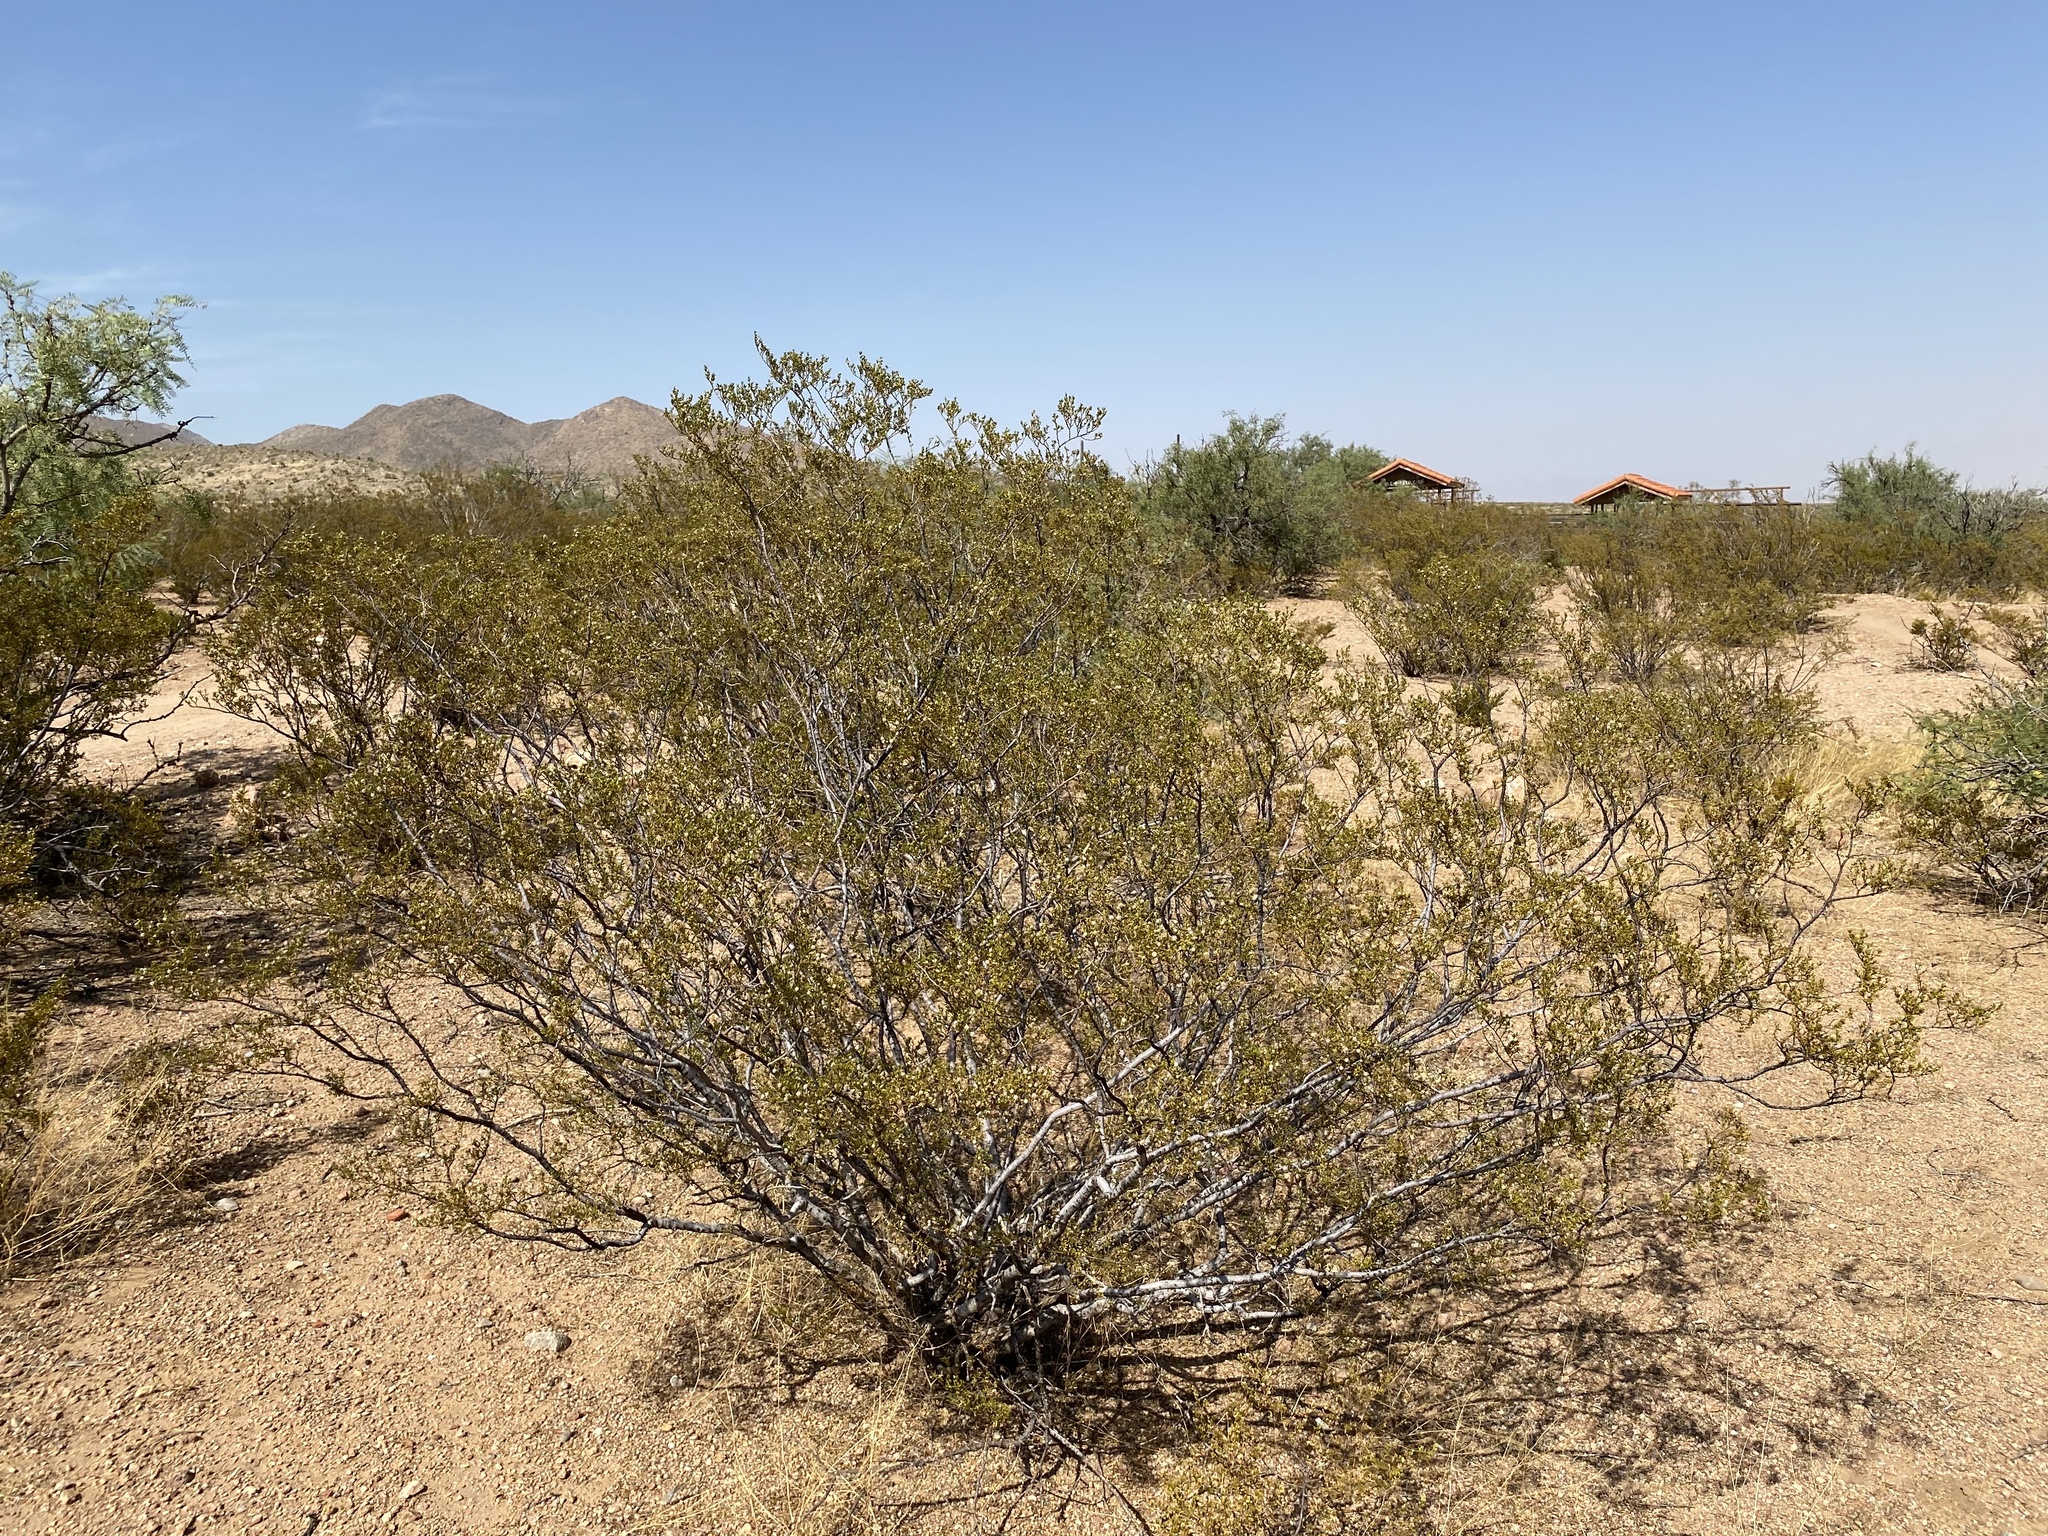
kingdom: Plantae
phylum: Tracheophyta
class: Magnoliopsida
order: Zygophyllales
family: Zygophyllaceae
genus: Larrea
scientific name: Larrea tridentata
